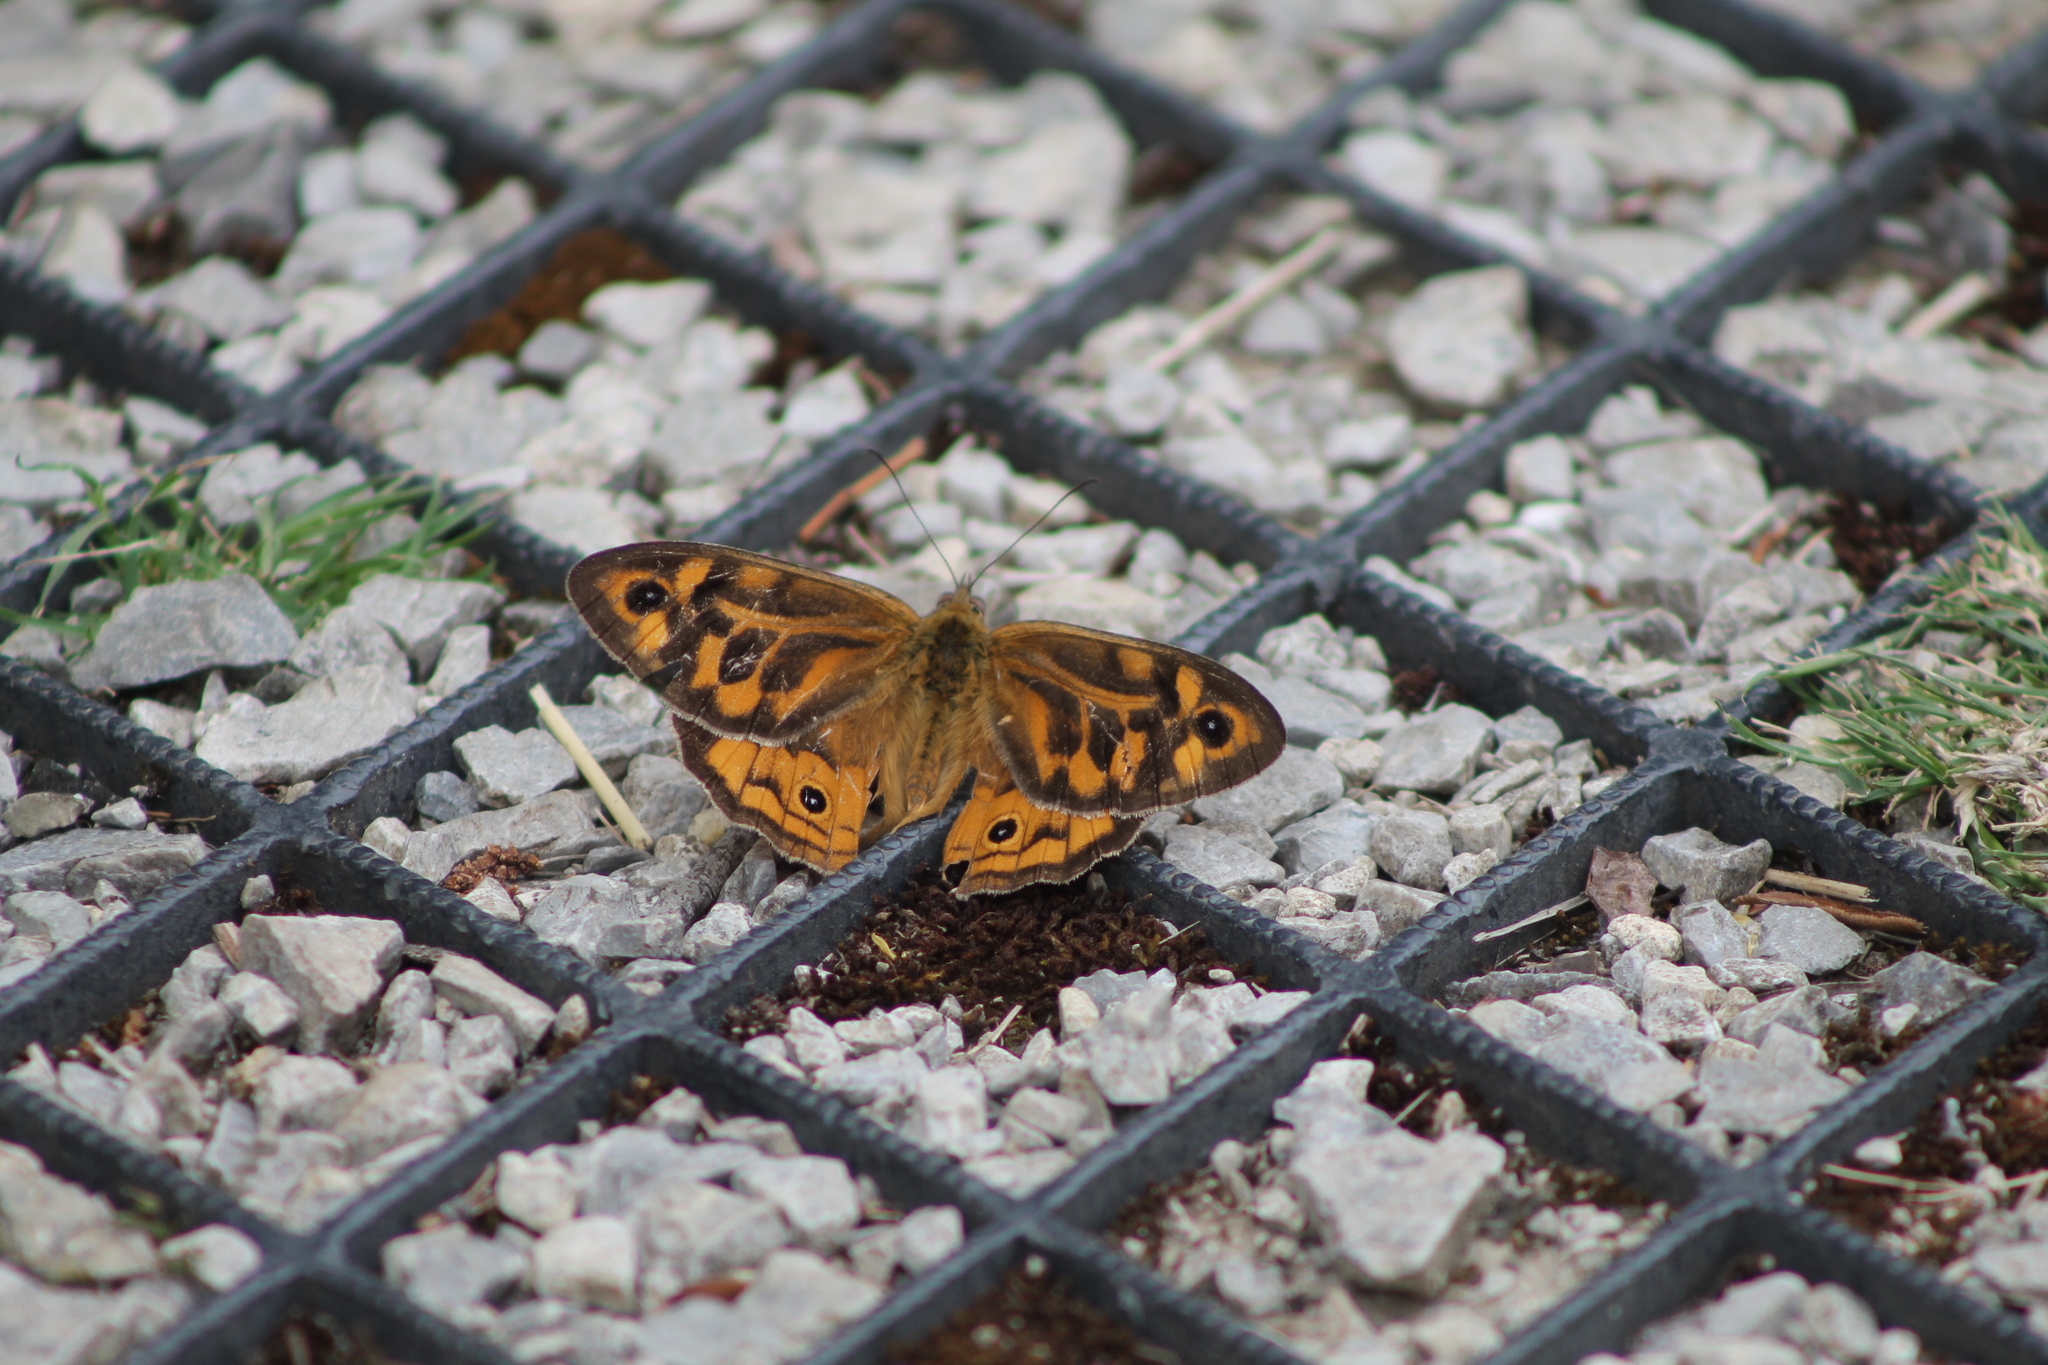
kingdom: Animalia
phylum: Arthropoda
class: Insecta
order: Lepidoptera
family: Nymphalidae
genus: Heteronympha
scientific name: Heteronympha merope
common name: Common brown
